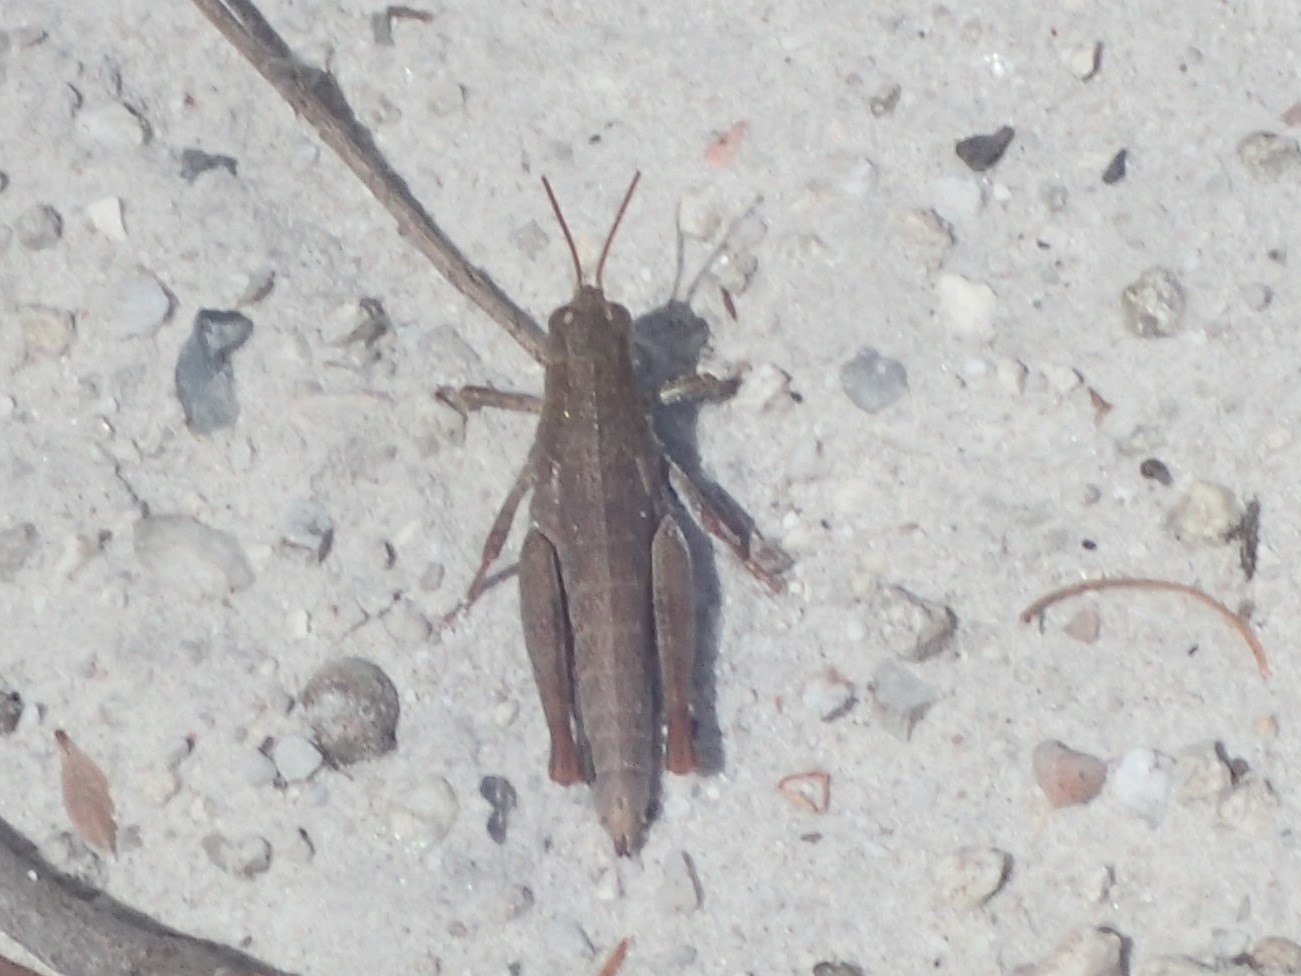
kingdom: Animalia
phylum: Arthropoda
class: Insecta
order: Orthoptera
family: Acrididae
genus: Tasmaniacris
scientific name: Tasmaniacris tasmaniensis
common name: Tasmanian grasshopper
